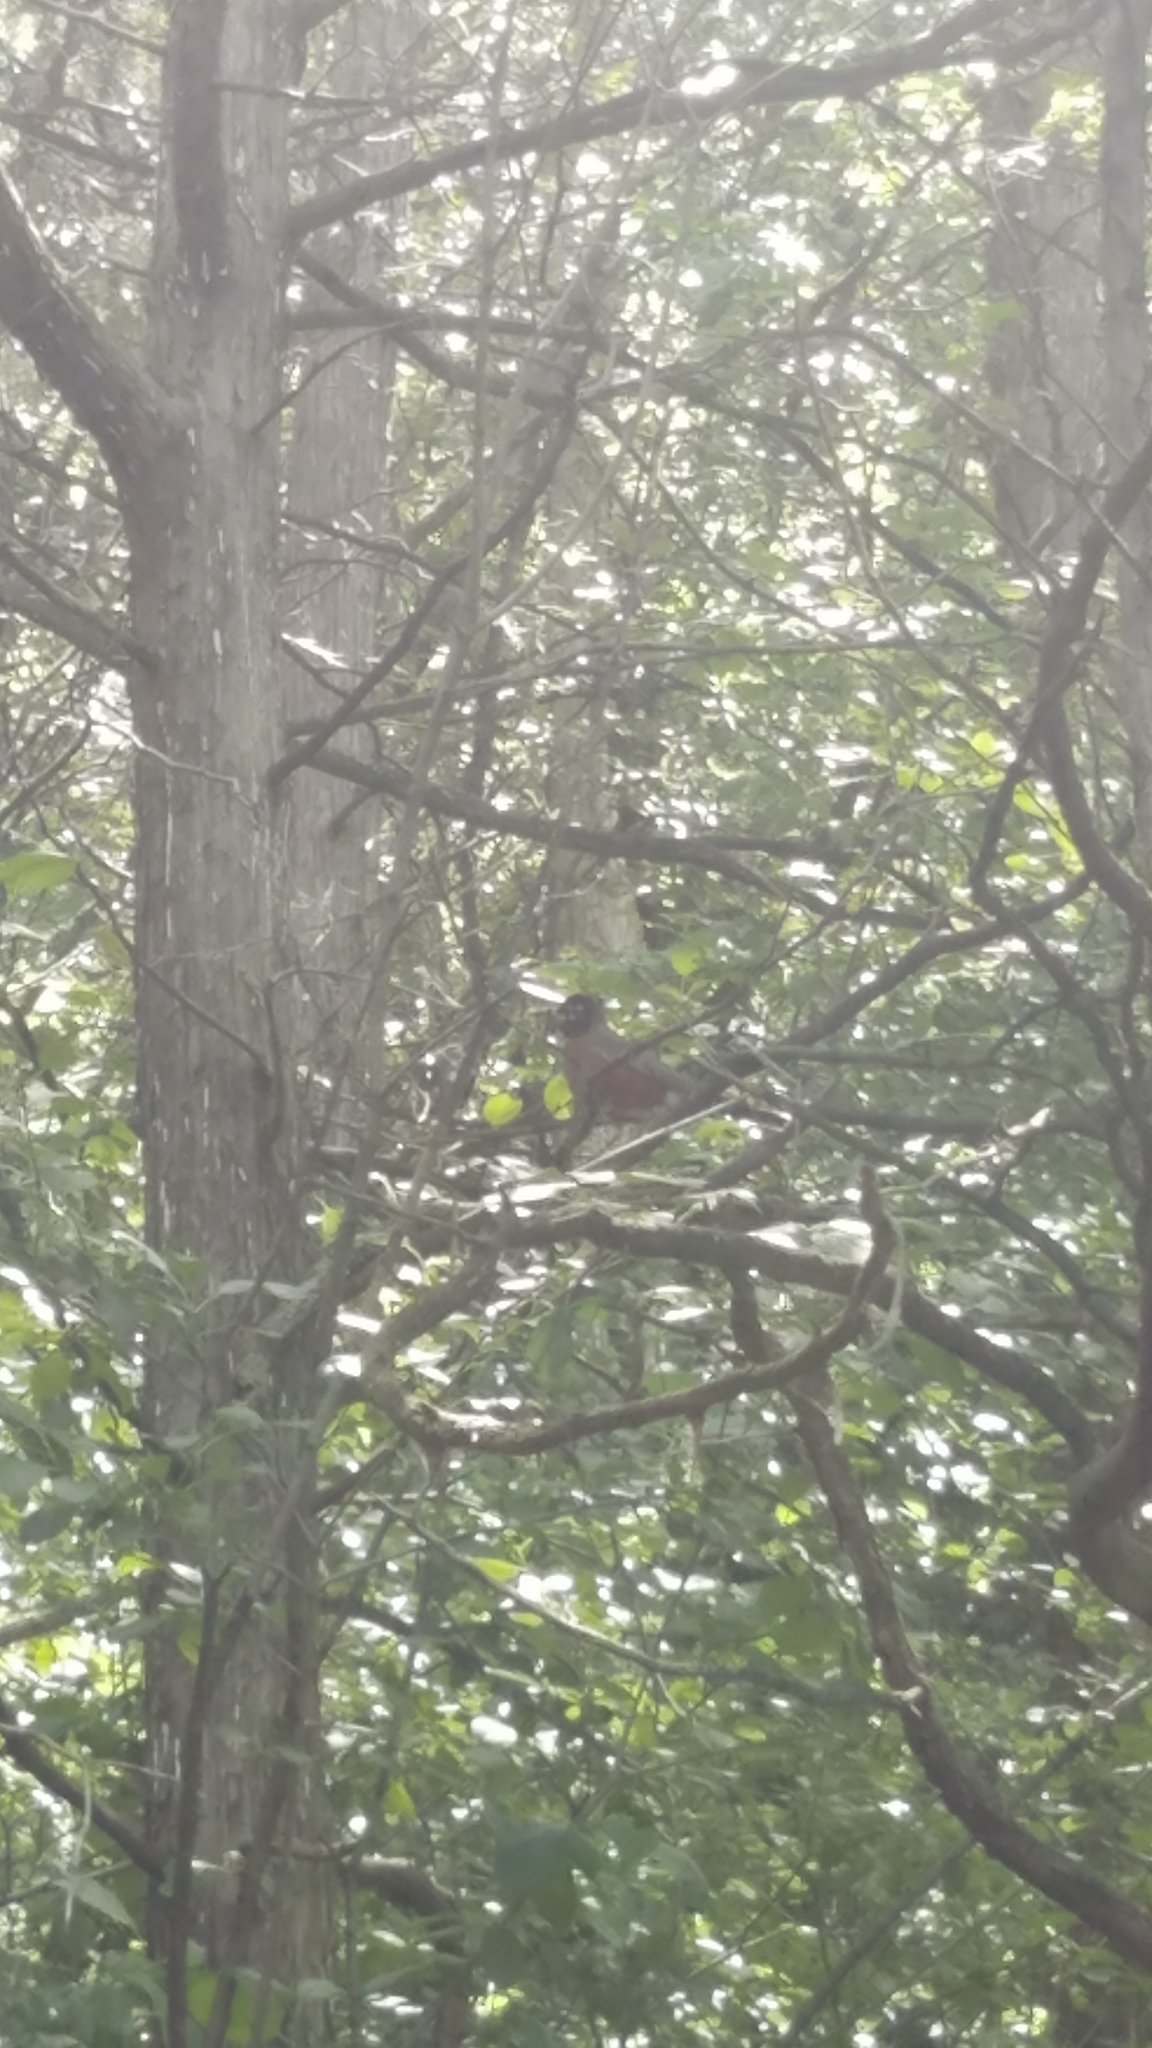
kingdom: Animalia
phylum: Chordata
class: Aves
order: Passeriformes
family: Turdidae
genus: Turdus
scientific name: Turdus migratorius
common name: American robin
